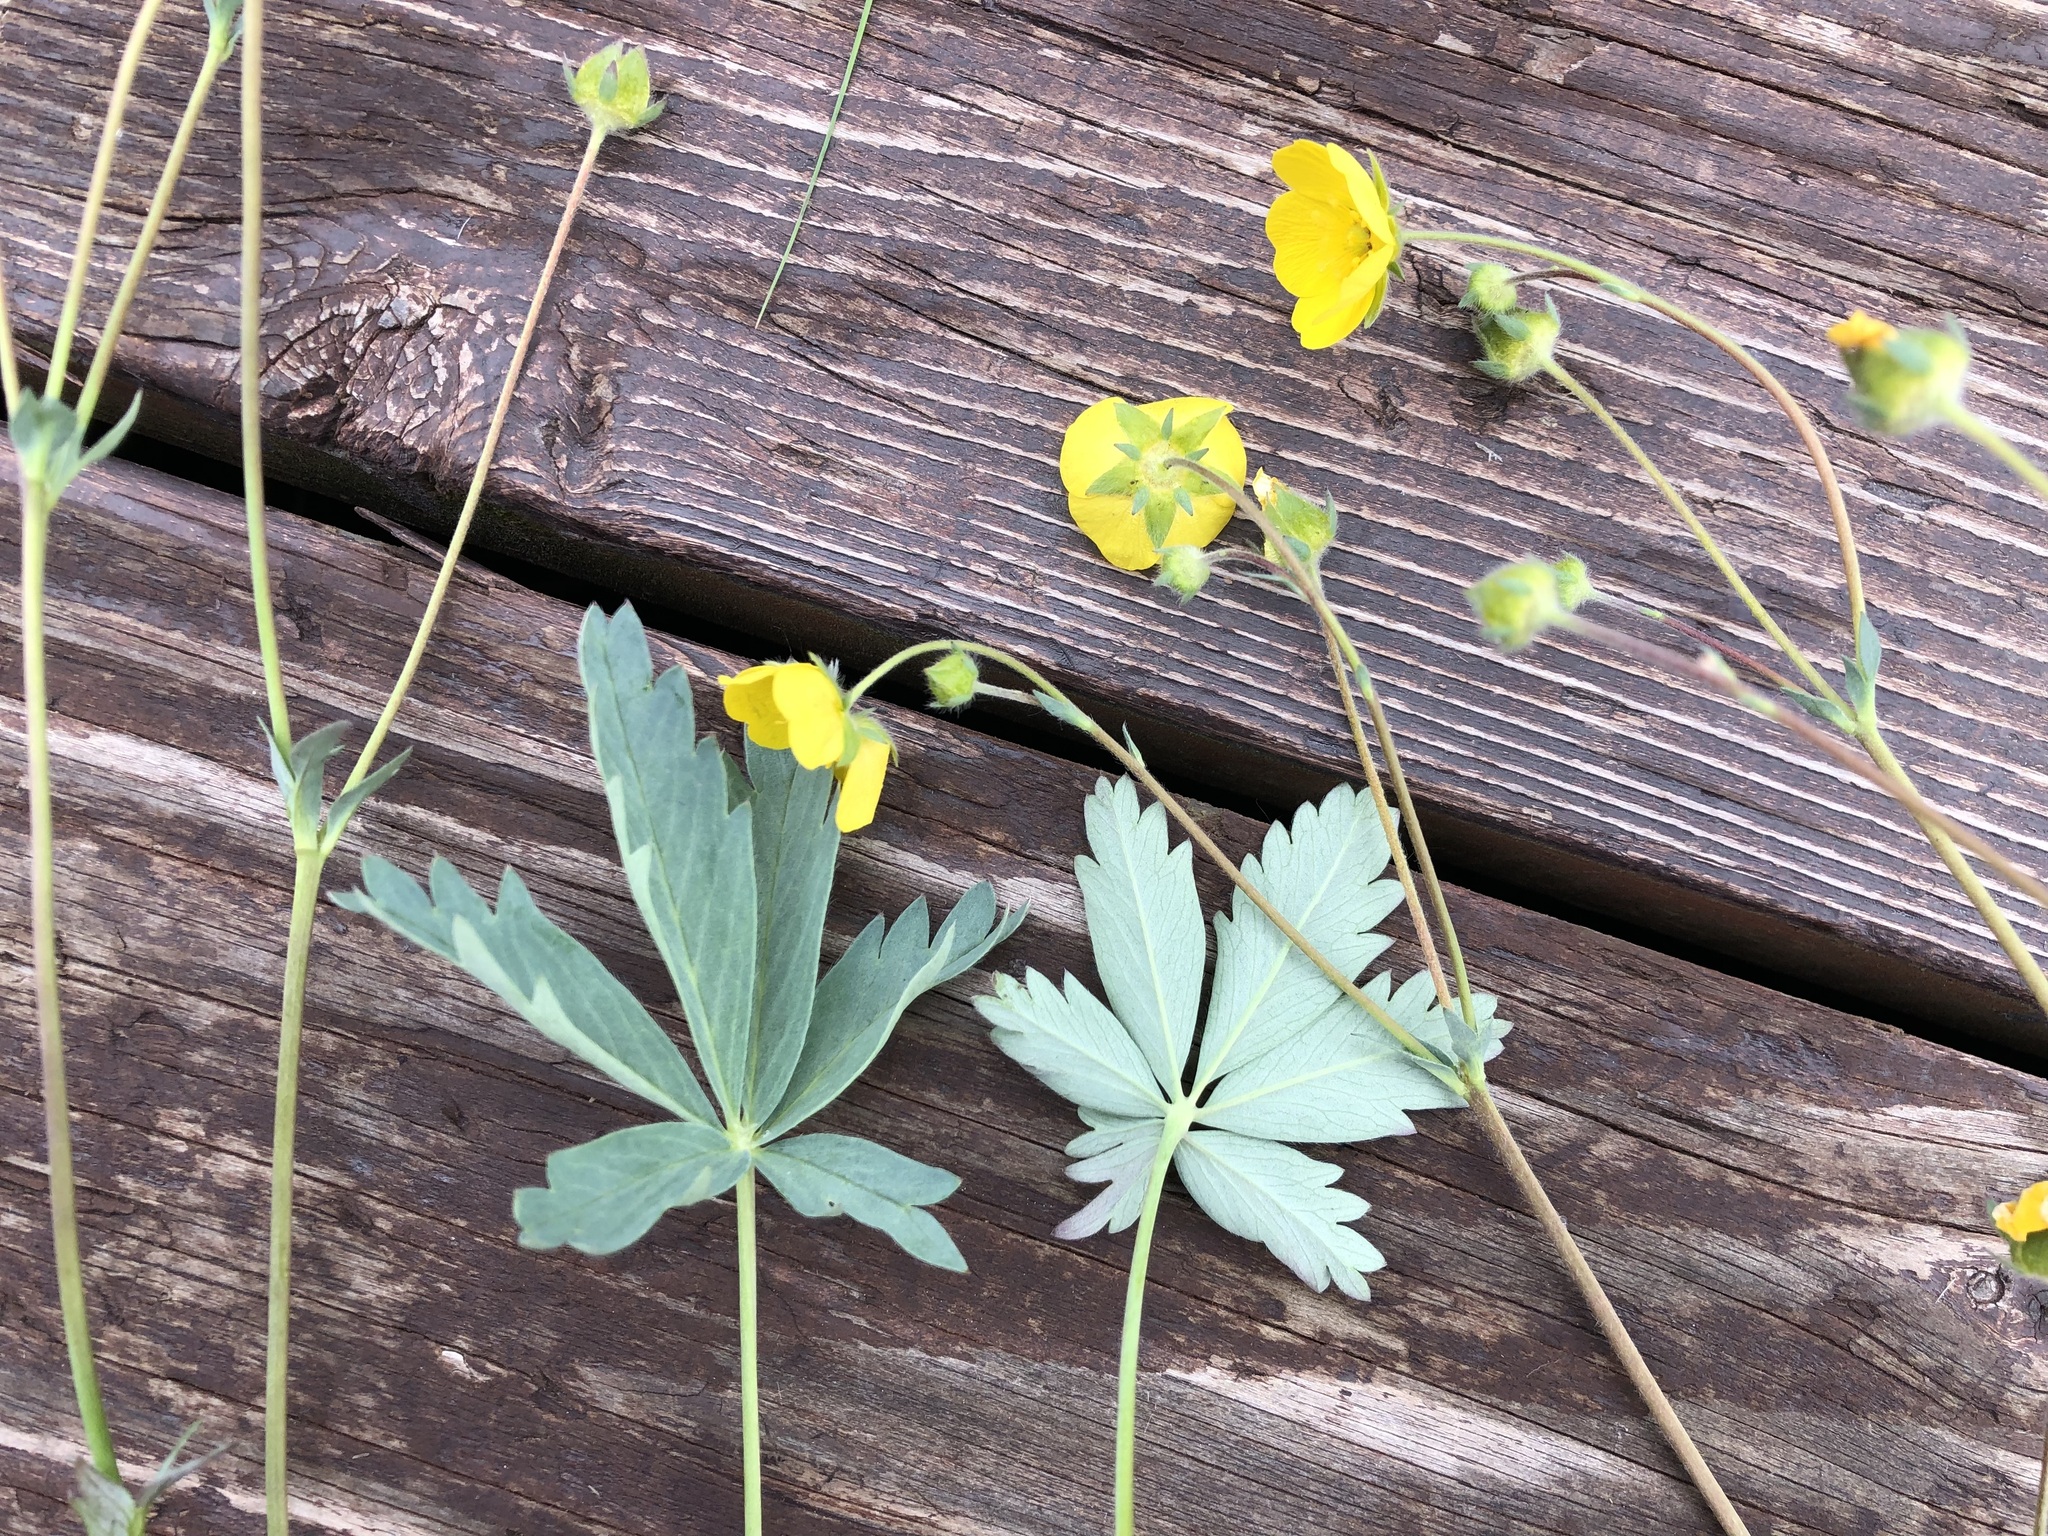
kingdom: Plantae
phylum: Tracheophyta
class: Magnoliopsida
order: Rosales
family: Rosaceae
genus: Potentilla
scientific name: Potentilla glaucophylla
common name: Blue-leaved cinquefoil
